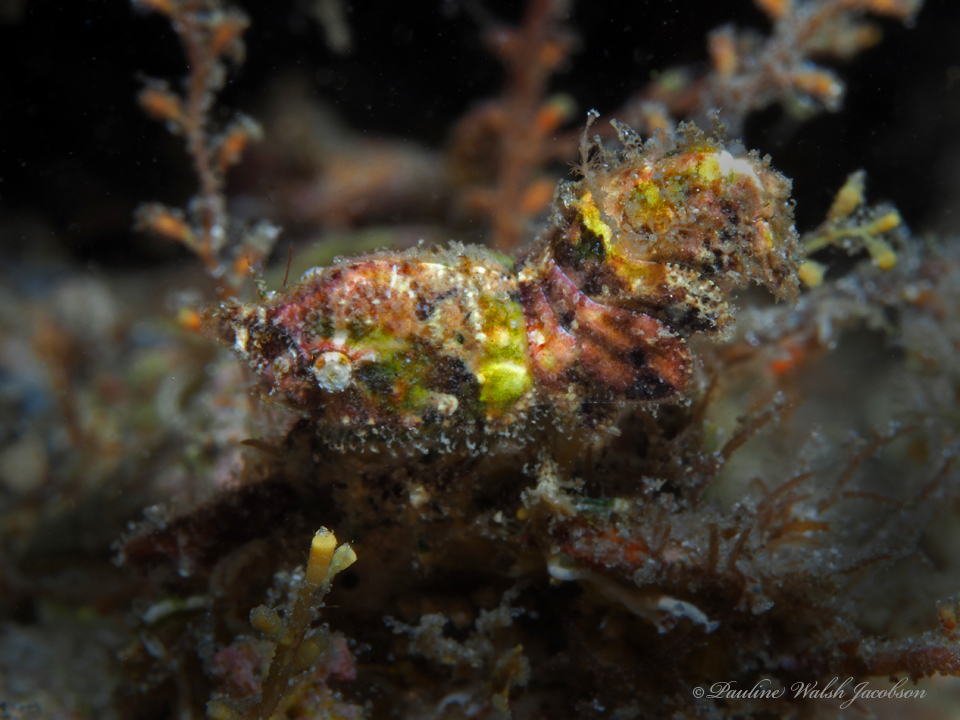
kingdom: Animalia
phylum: Arthropoda
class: Malacostraca
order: Decapoda
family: Hippolytidae
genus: Trachycaris
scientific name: Trachycaris rugosa
